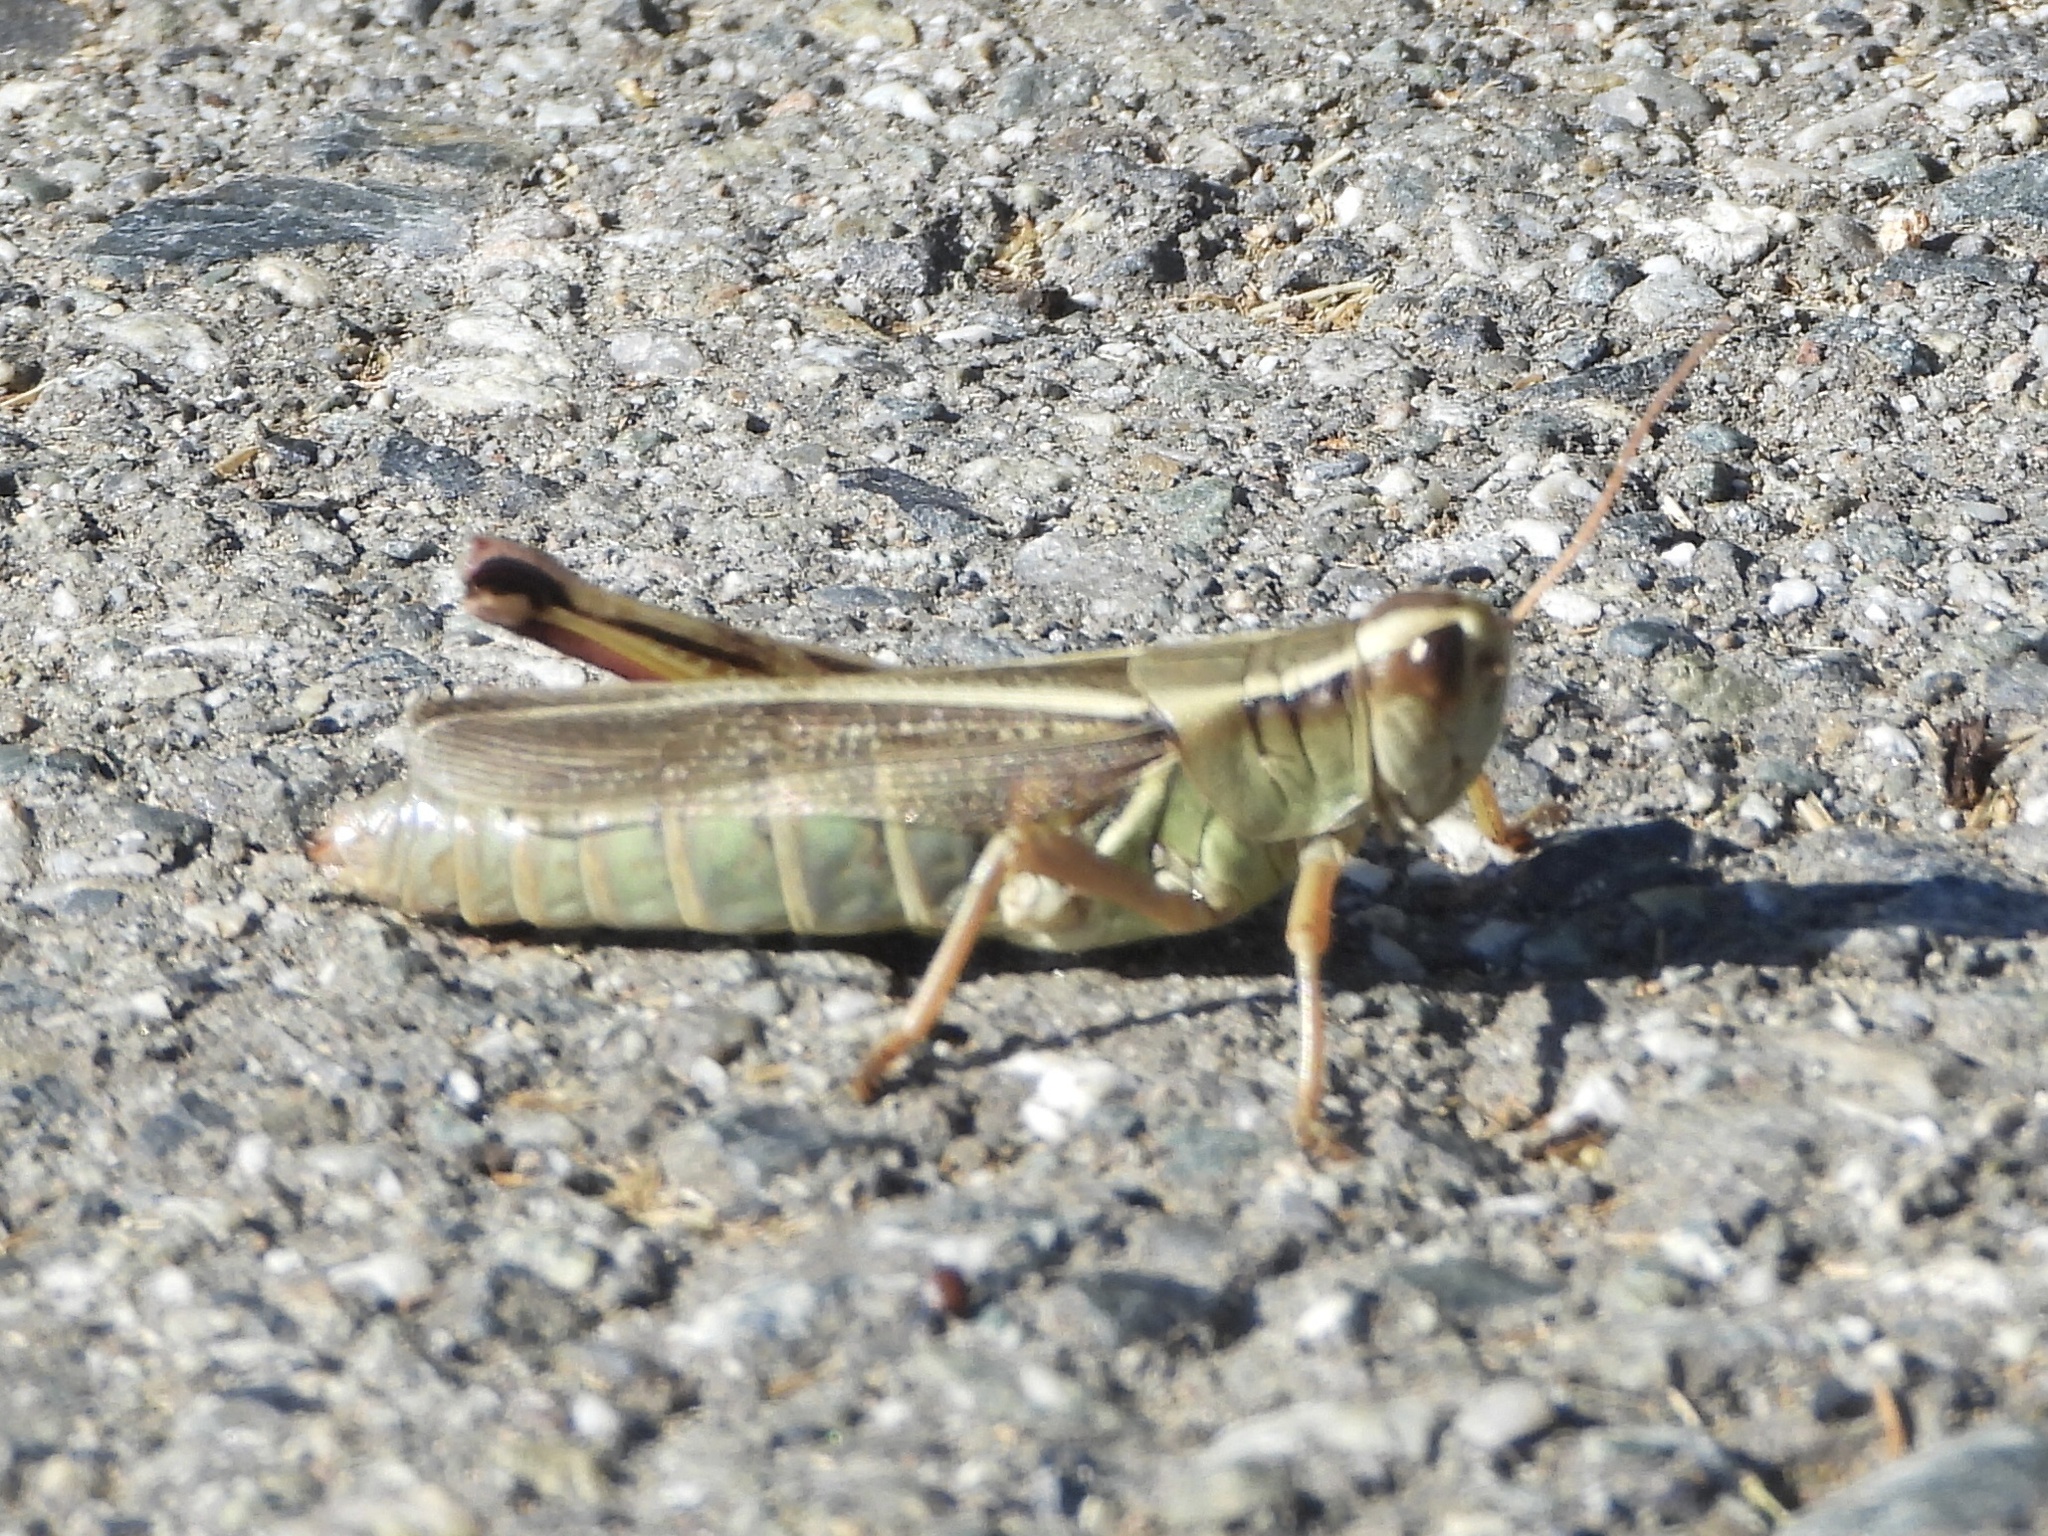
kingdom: Animalia
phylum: Arthropoda
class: Insecta
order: Orthoptera
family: Acrididae
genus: Melanoplus
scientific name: Melanoplus bivittatus
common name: Two-striped grasshopper
